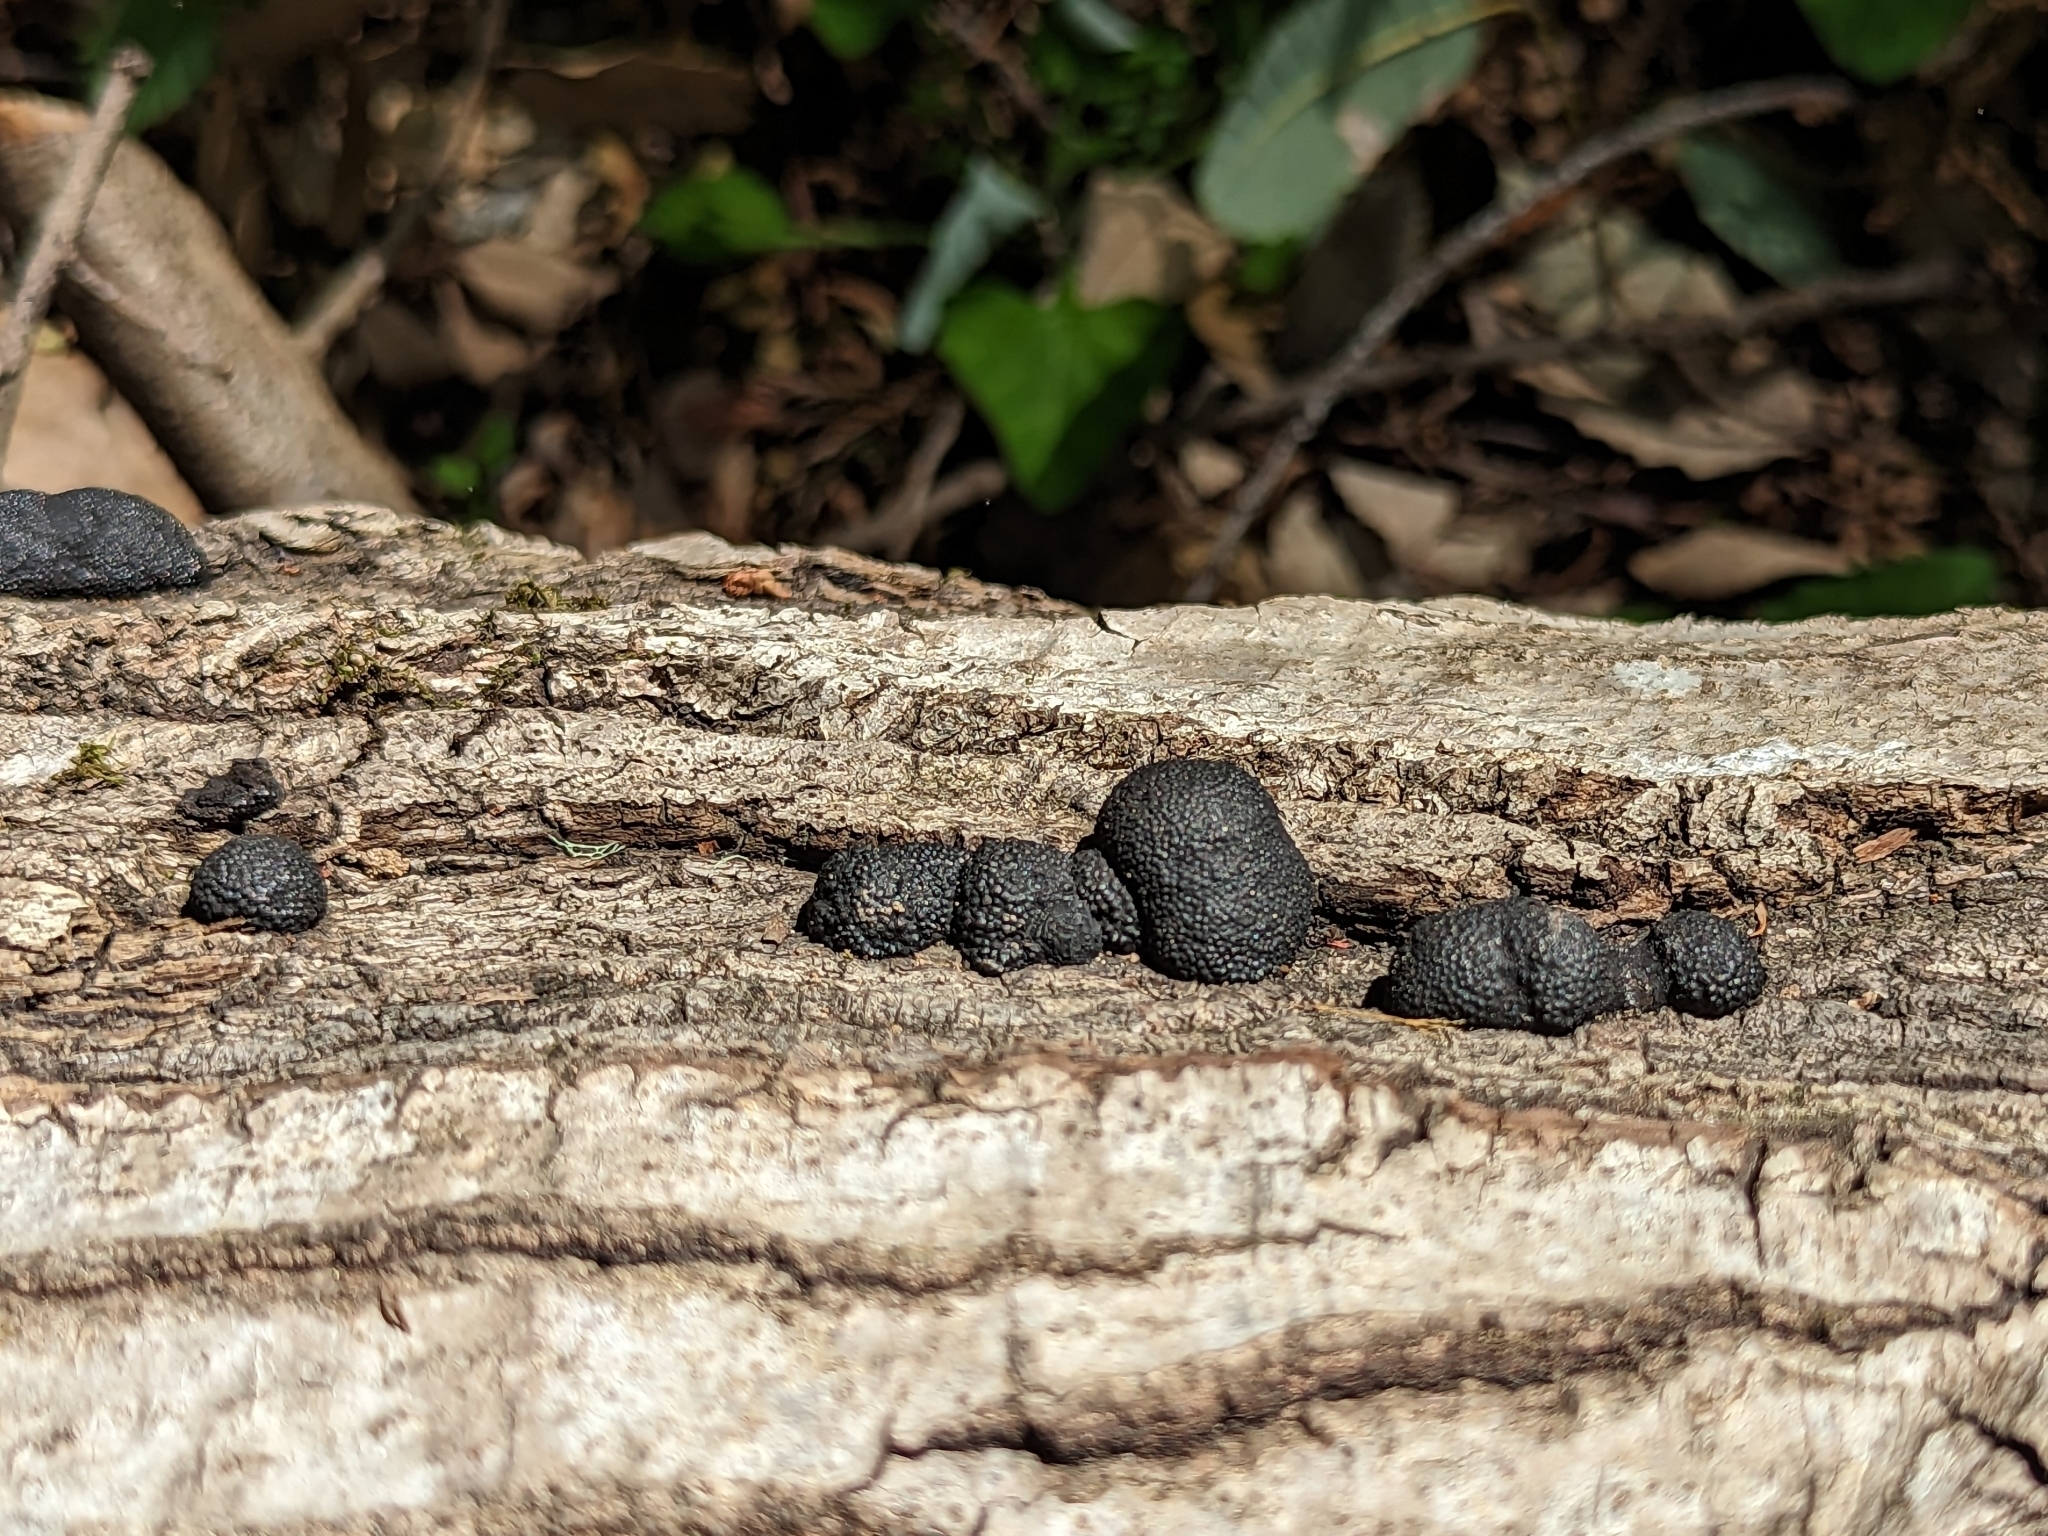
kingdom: Fungi
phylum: Ascomycota
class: Sordariomycetes
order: Xylariales
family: Hypoxylaceae
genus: Annulohypoxylon
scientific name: Annulohypoxylon thouarsianum
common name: Cramp balls
